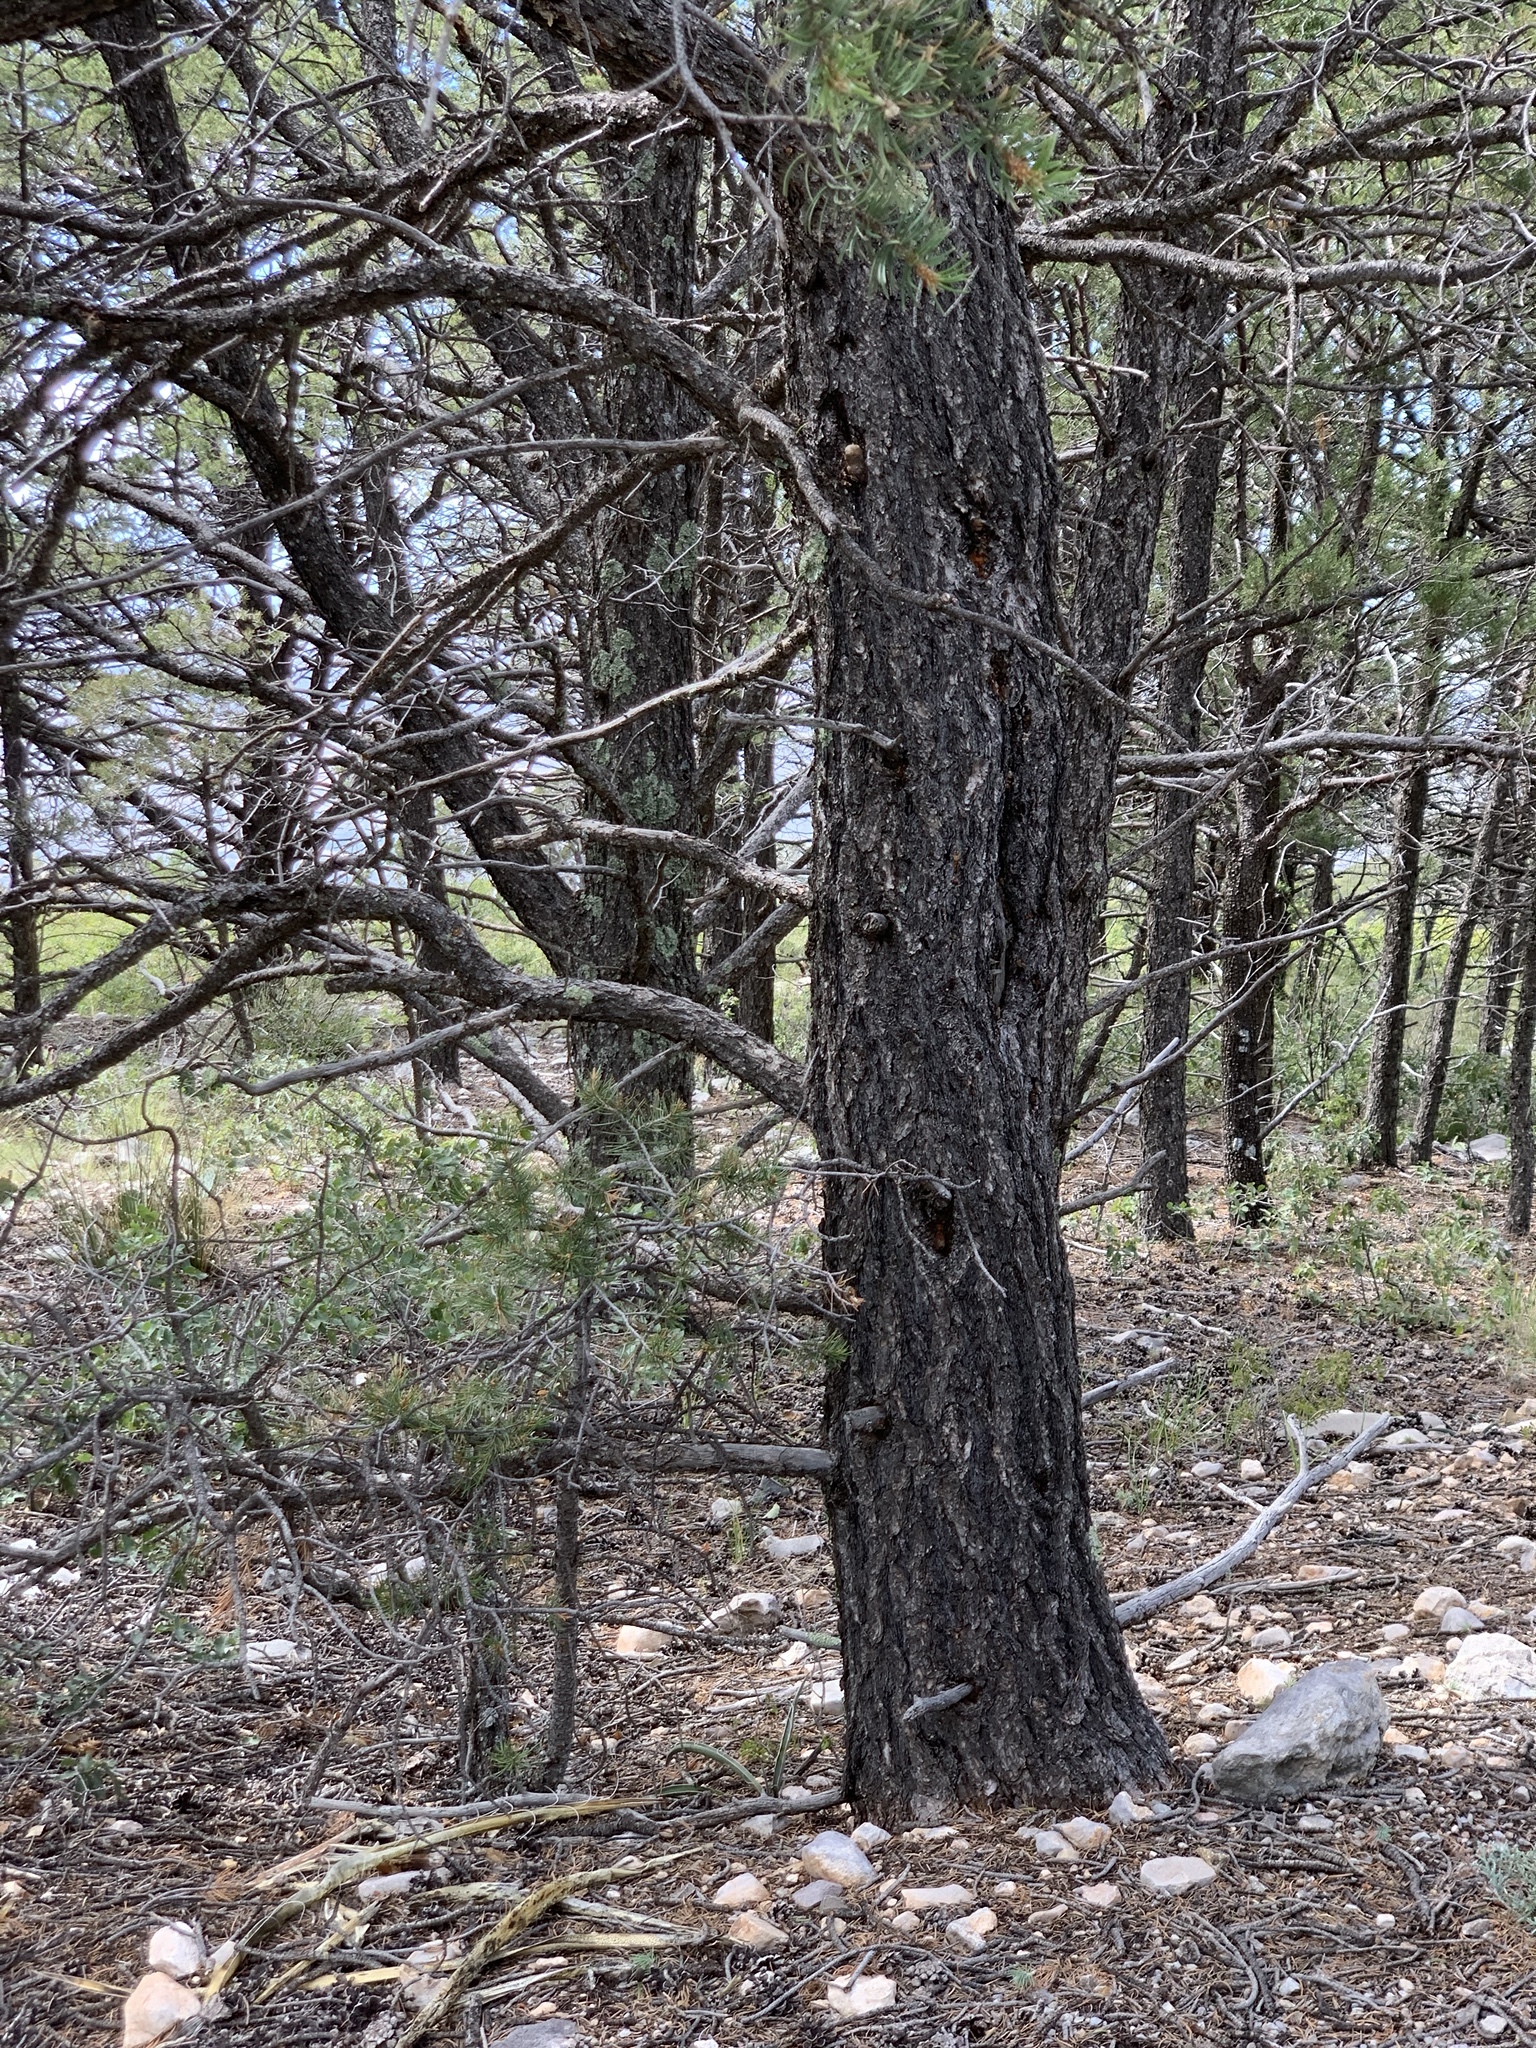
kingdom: Plantae
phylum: Tracheophyta
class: Pinopsida
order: Pinales
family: Pinaceae
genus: Pinus
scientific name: Pinus edulis
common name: Colorado pinyon
